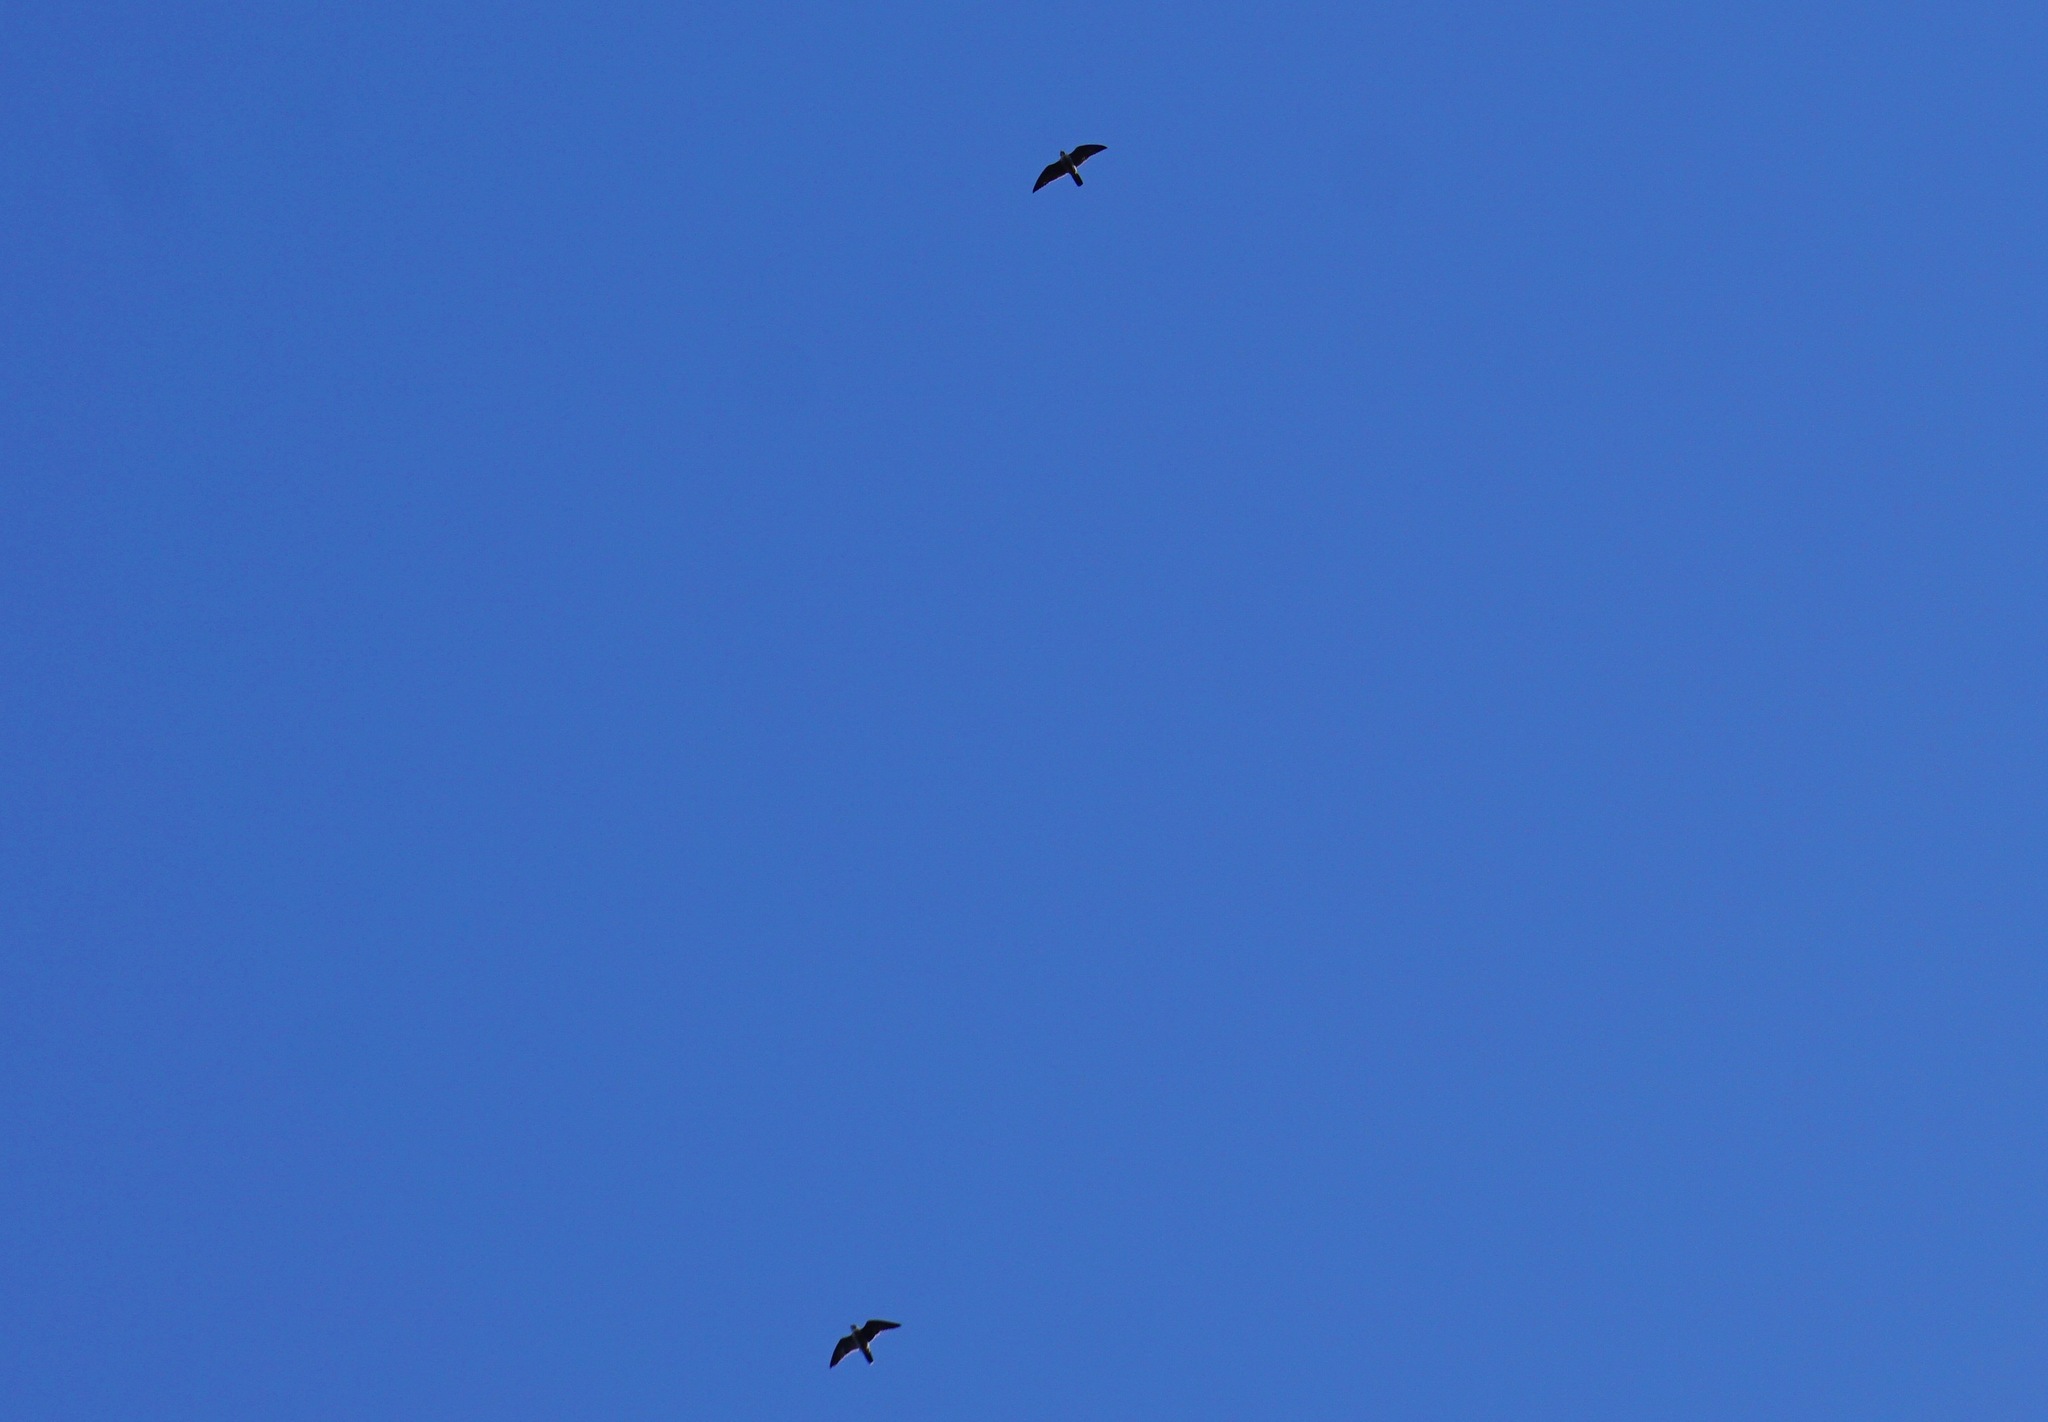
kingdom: Animalia
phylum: Chordata
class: Aves
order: Falconiformes
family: Falconidae
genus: Falco
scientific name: Falco peregrinus
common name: Peregrine falcon
